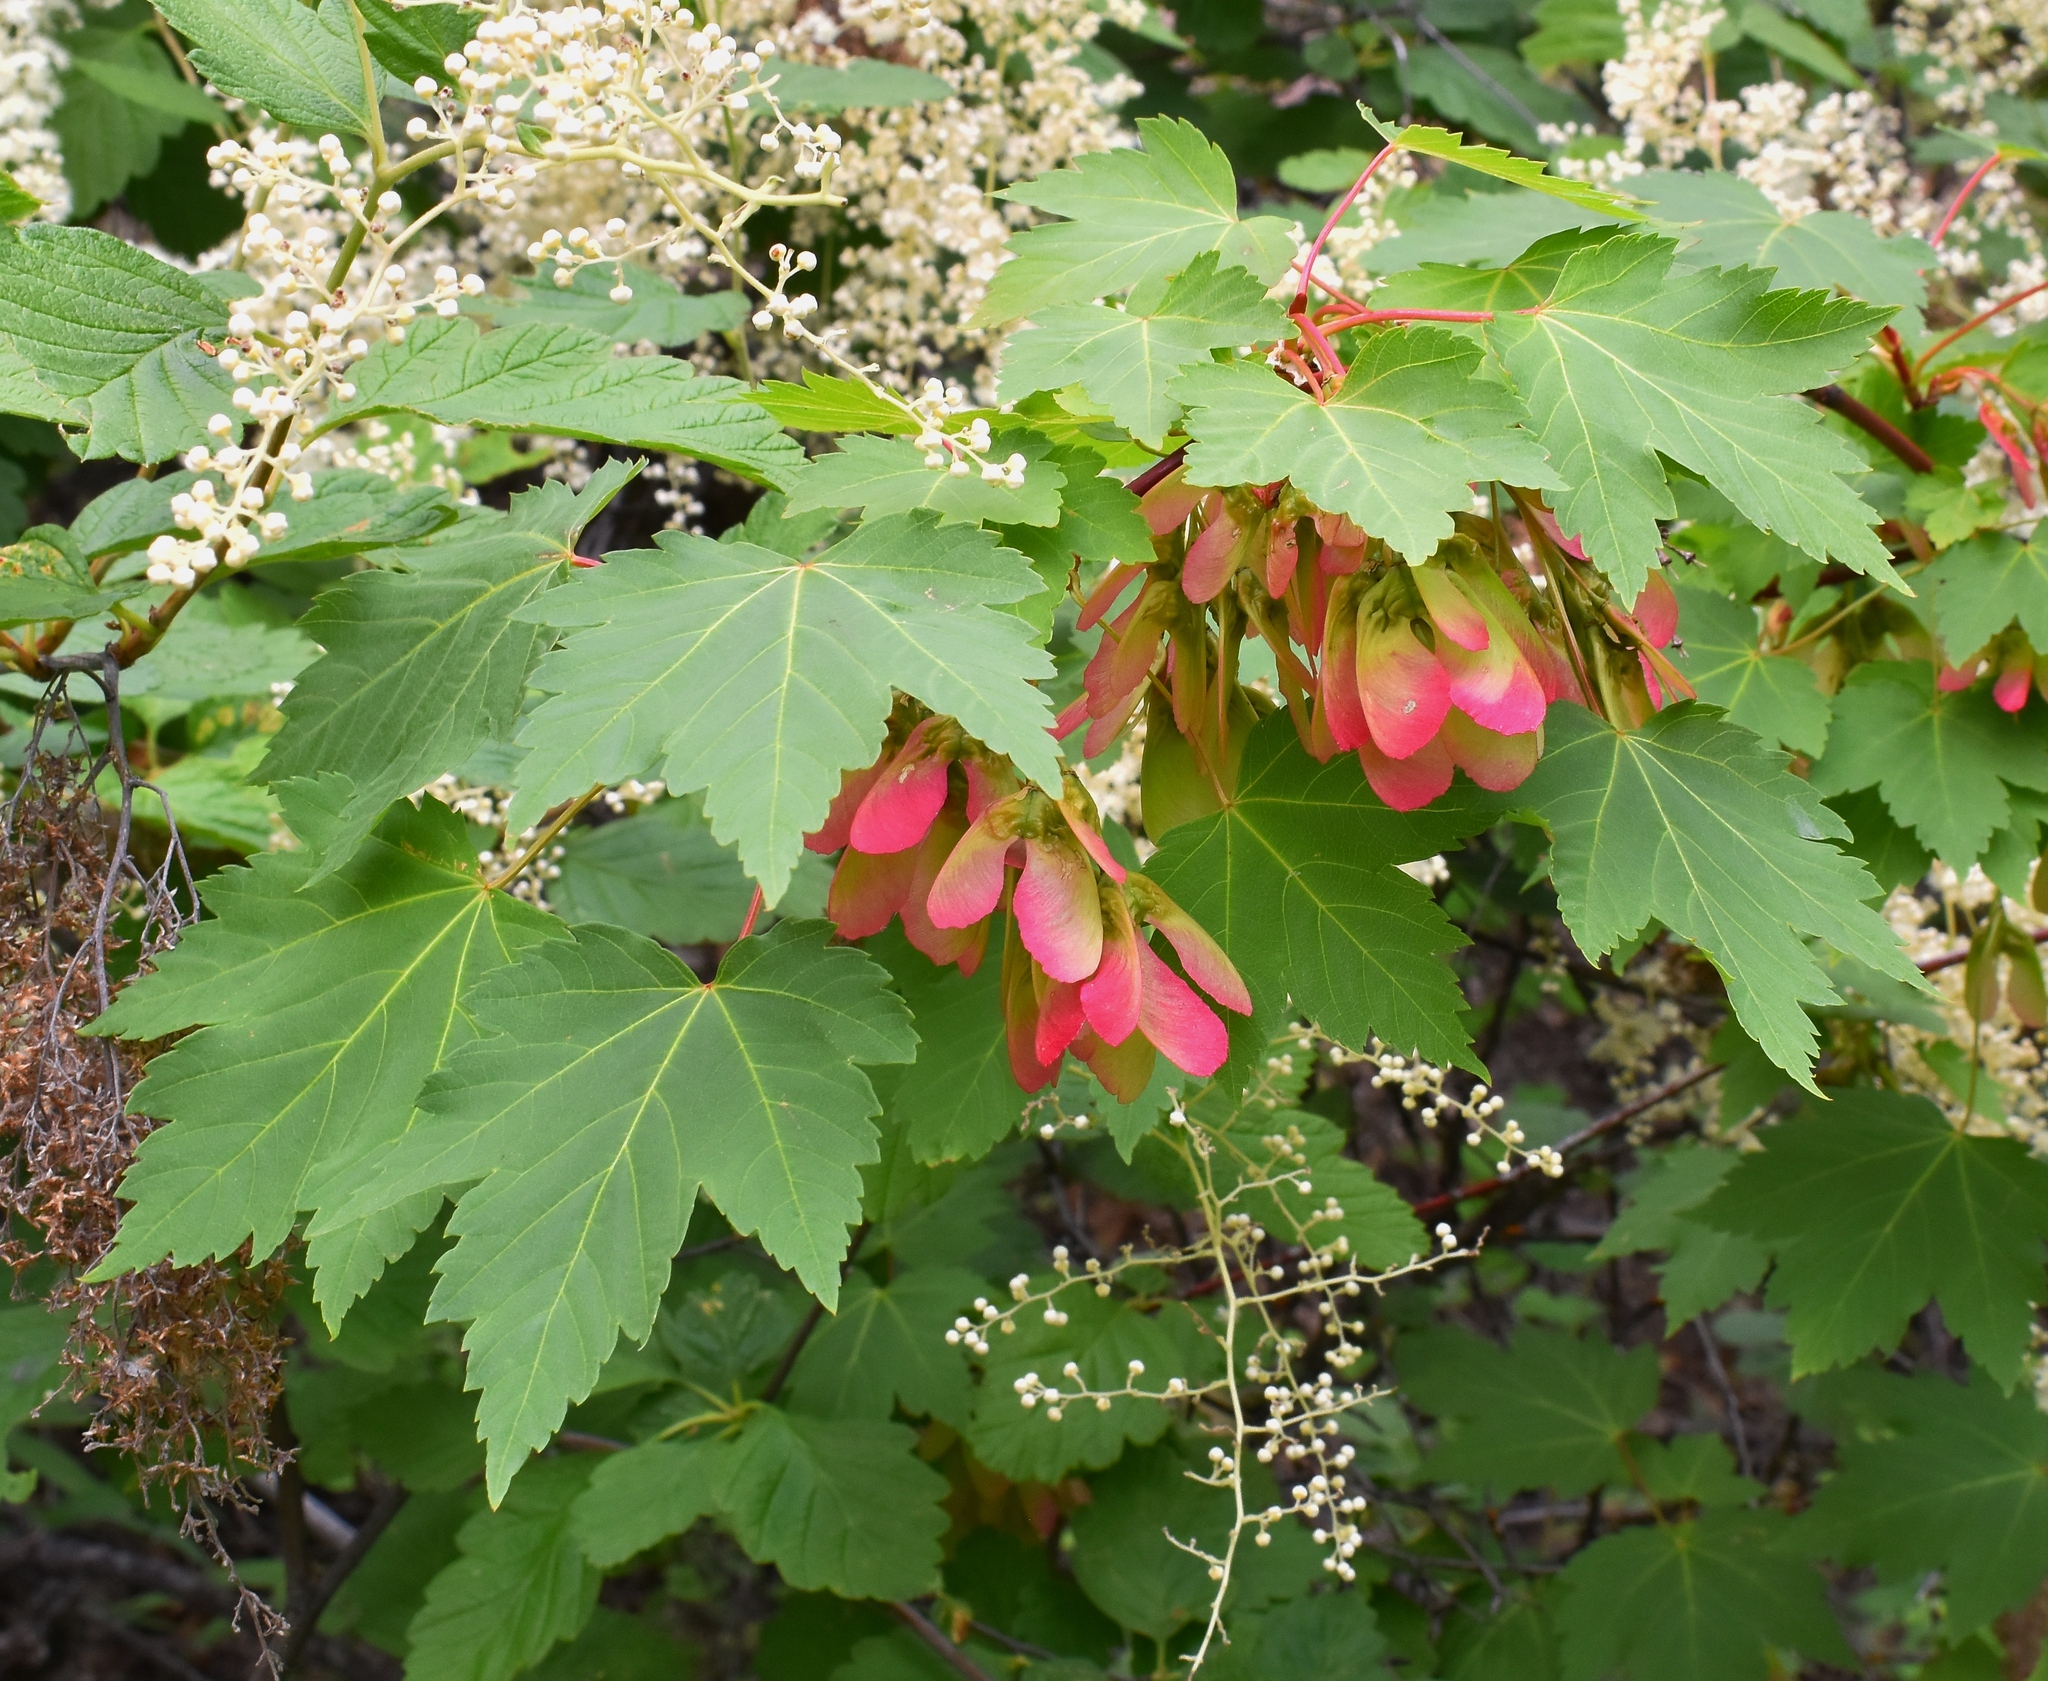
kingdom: Plantae
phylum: Tracheophyta
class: Magnoliopsida
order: Sapindales
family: Sapindaceae
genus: Acer
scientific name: Acer glabrum
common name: Rocky mountain maple
